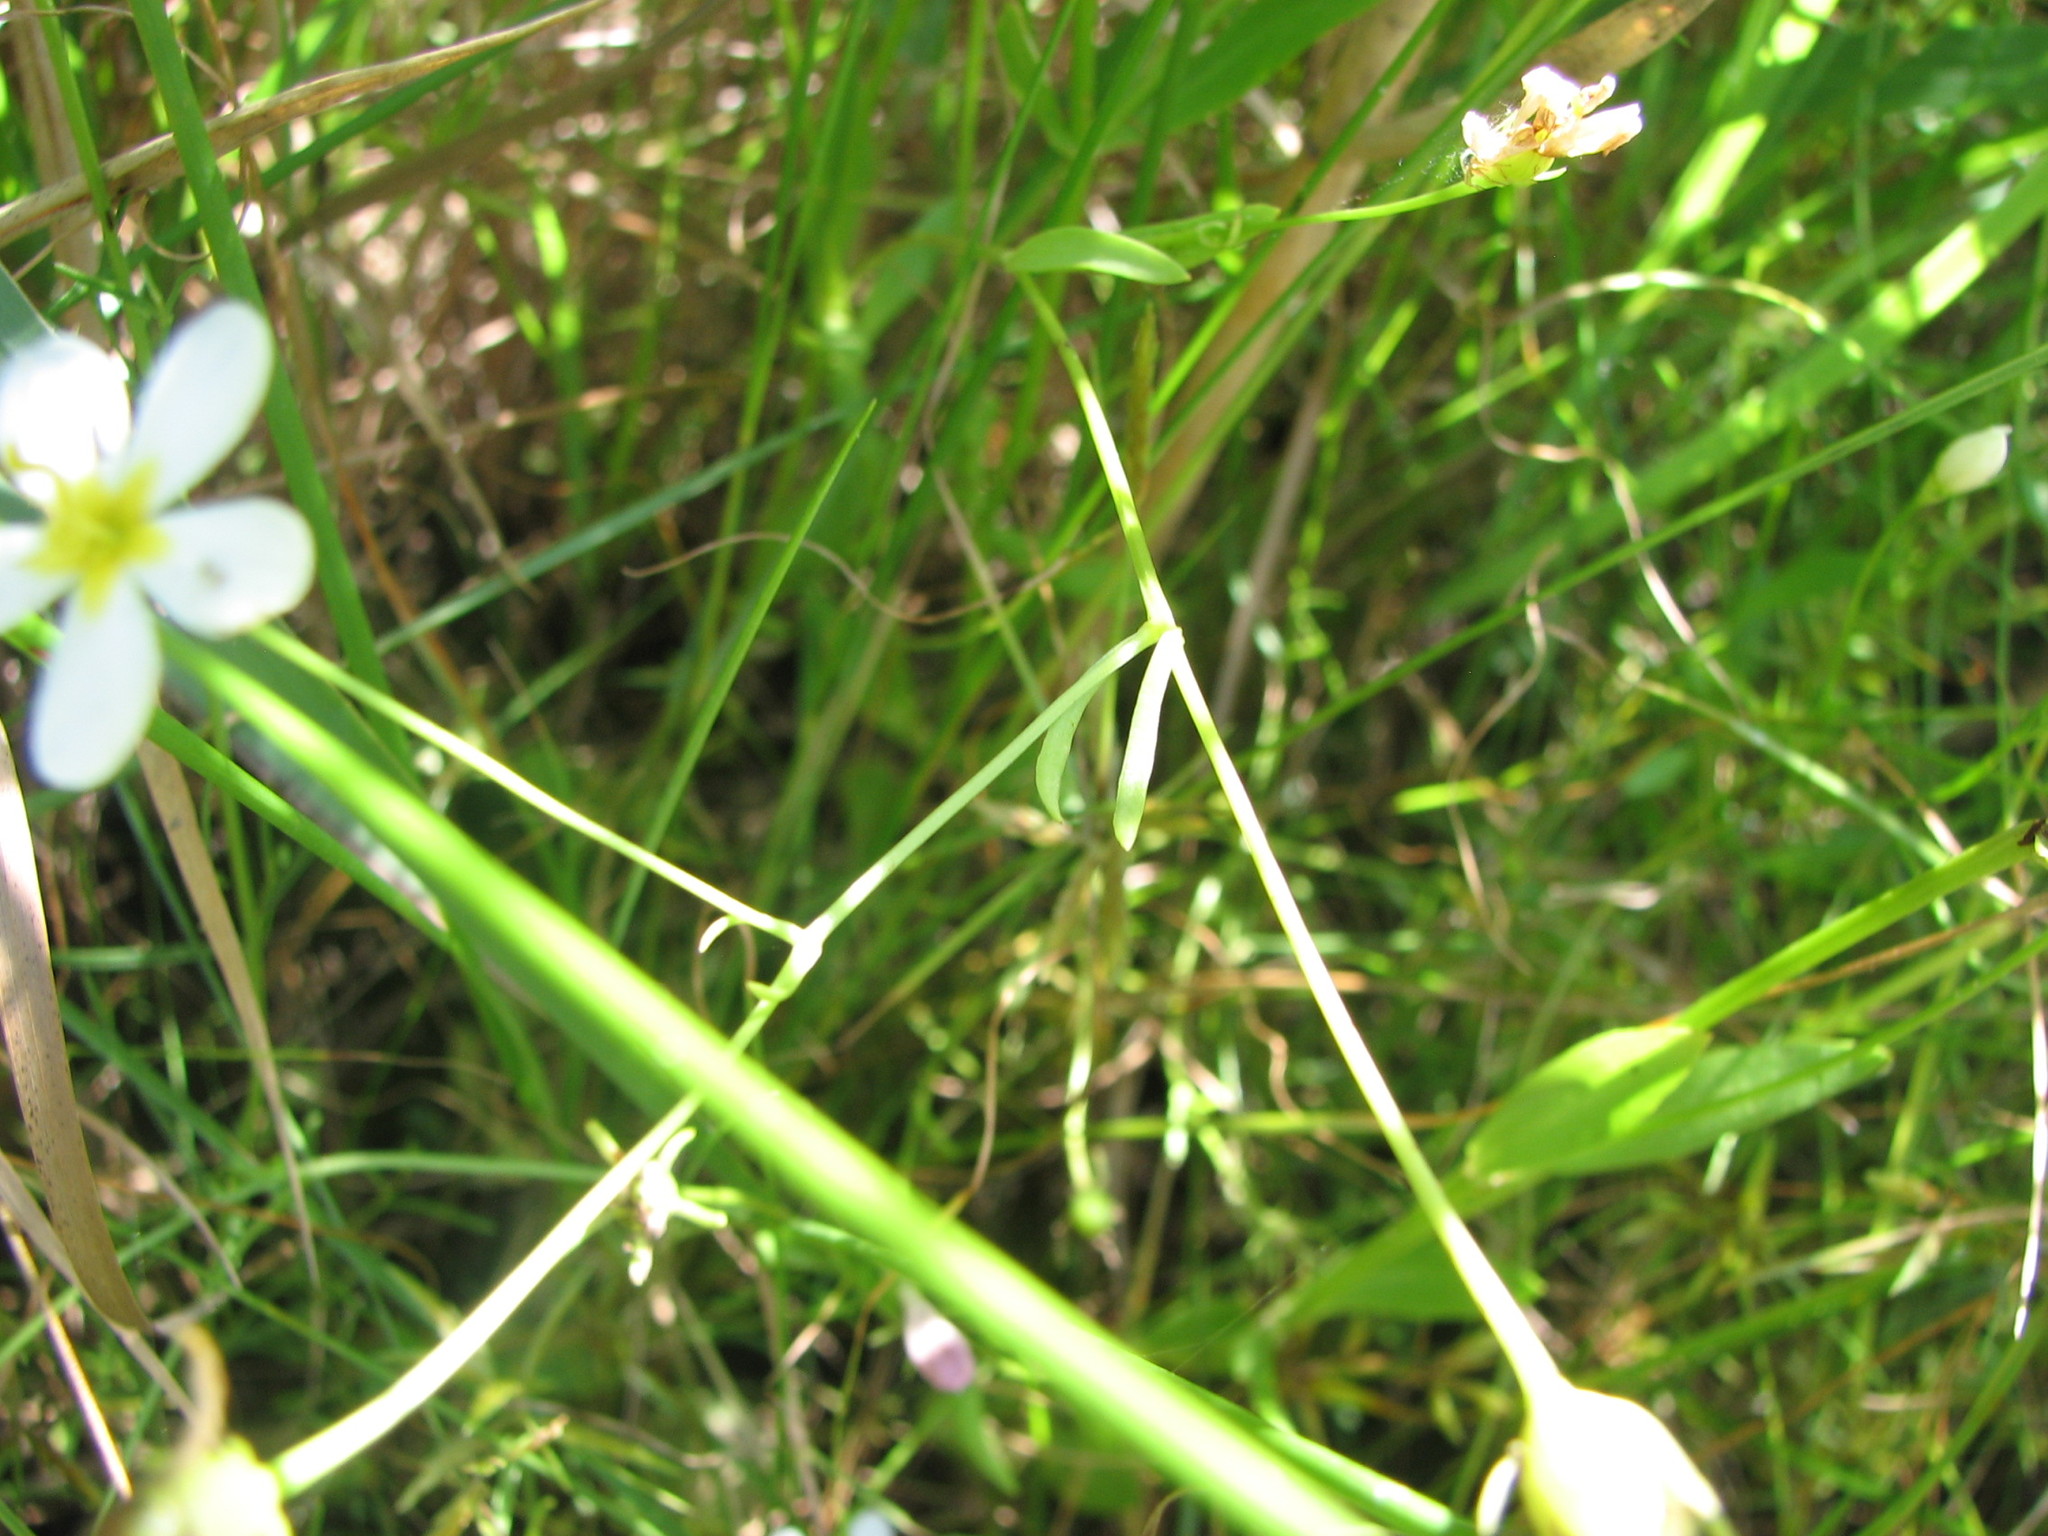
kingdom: Plantae
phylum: Tracheophyta
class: Magnoliopsida
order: Gentianales
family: Gentianaceae
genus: Sabatia
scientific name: Sabatia stellaris
